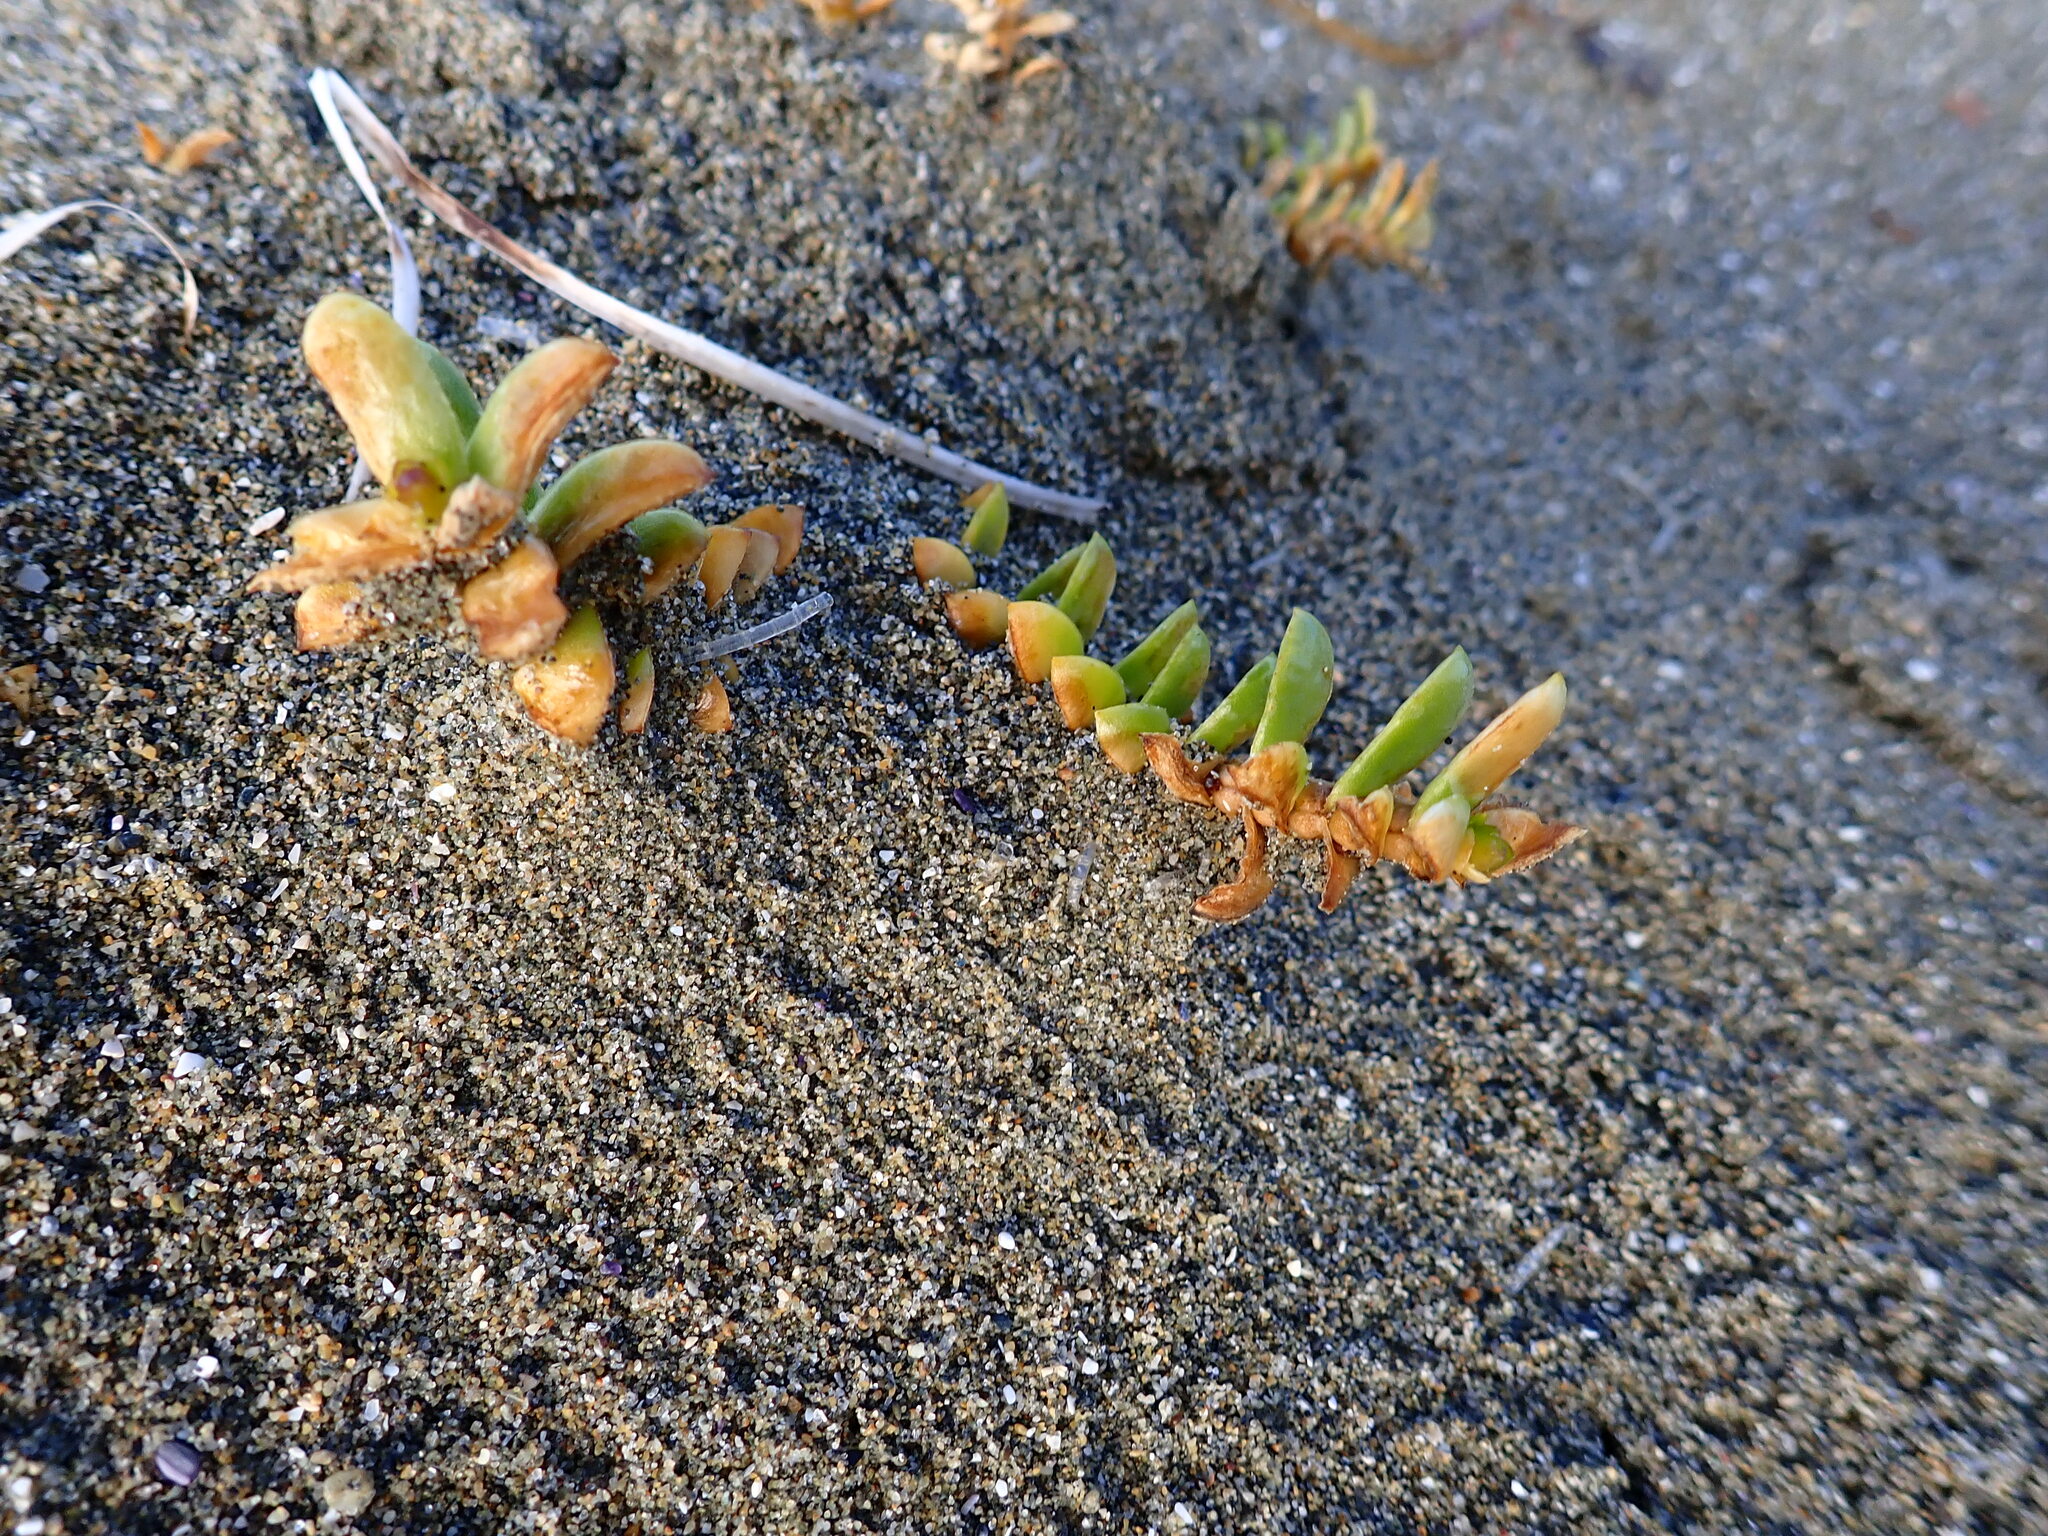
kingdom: Plantae
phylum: Tracheophyta
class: Magnoliopsida
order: Caryophyllales
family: Caryophyllaceae
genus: Honckenya
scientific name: Honckenya peploides
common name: Sea sandwort
